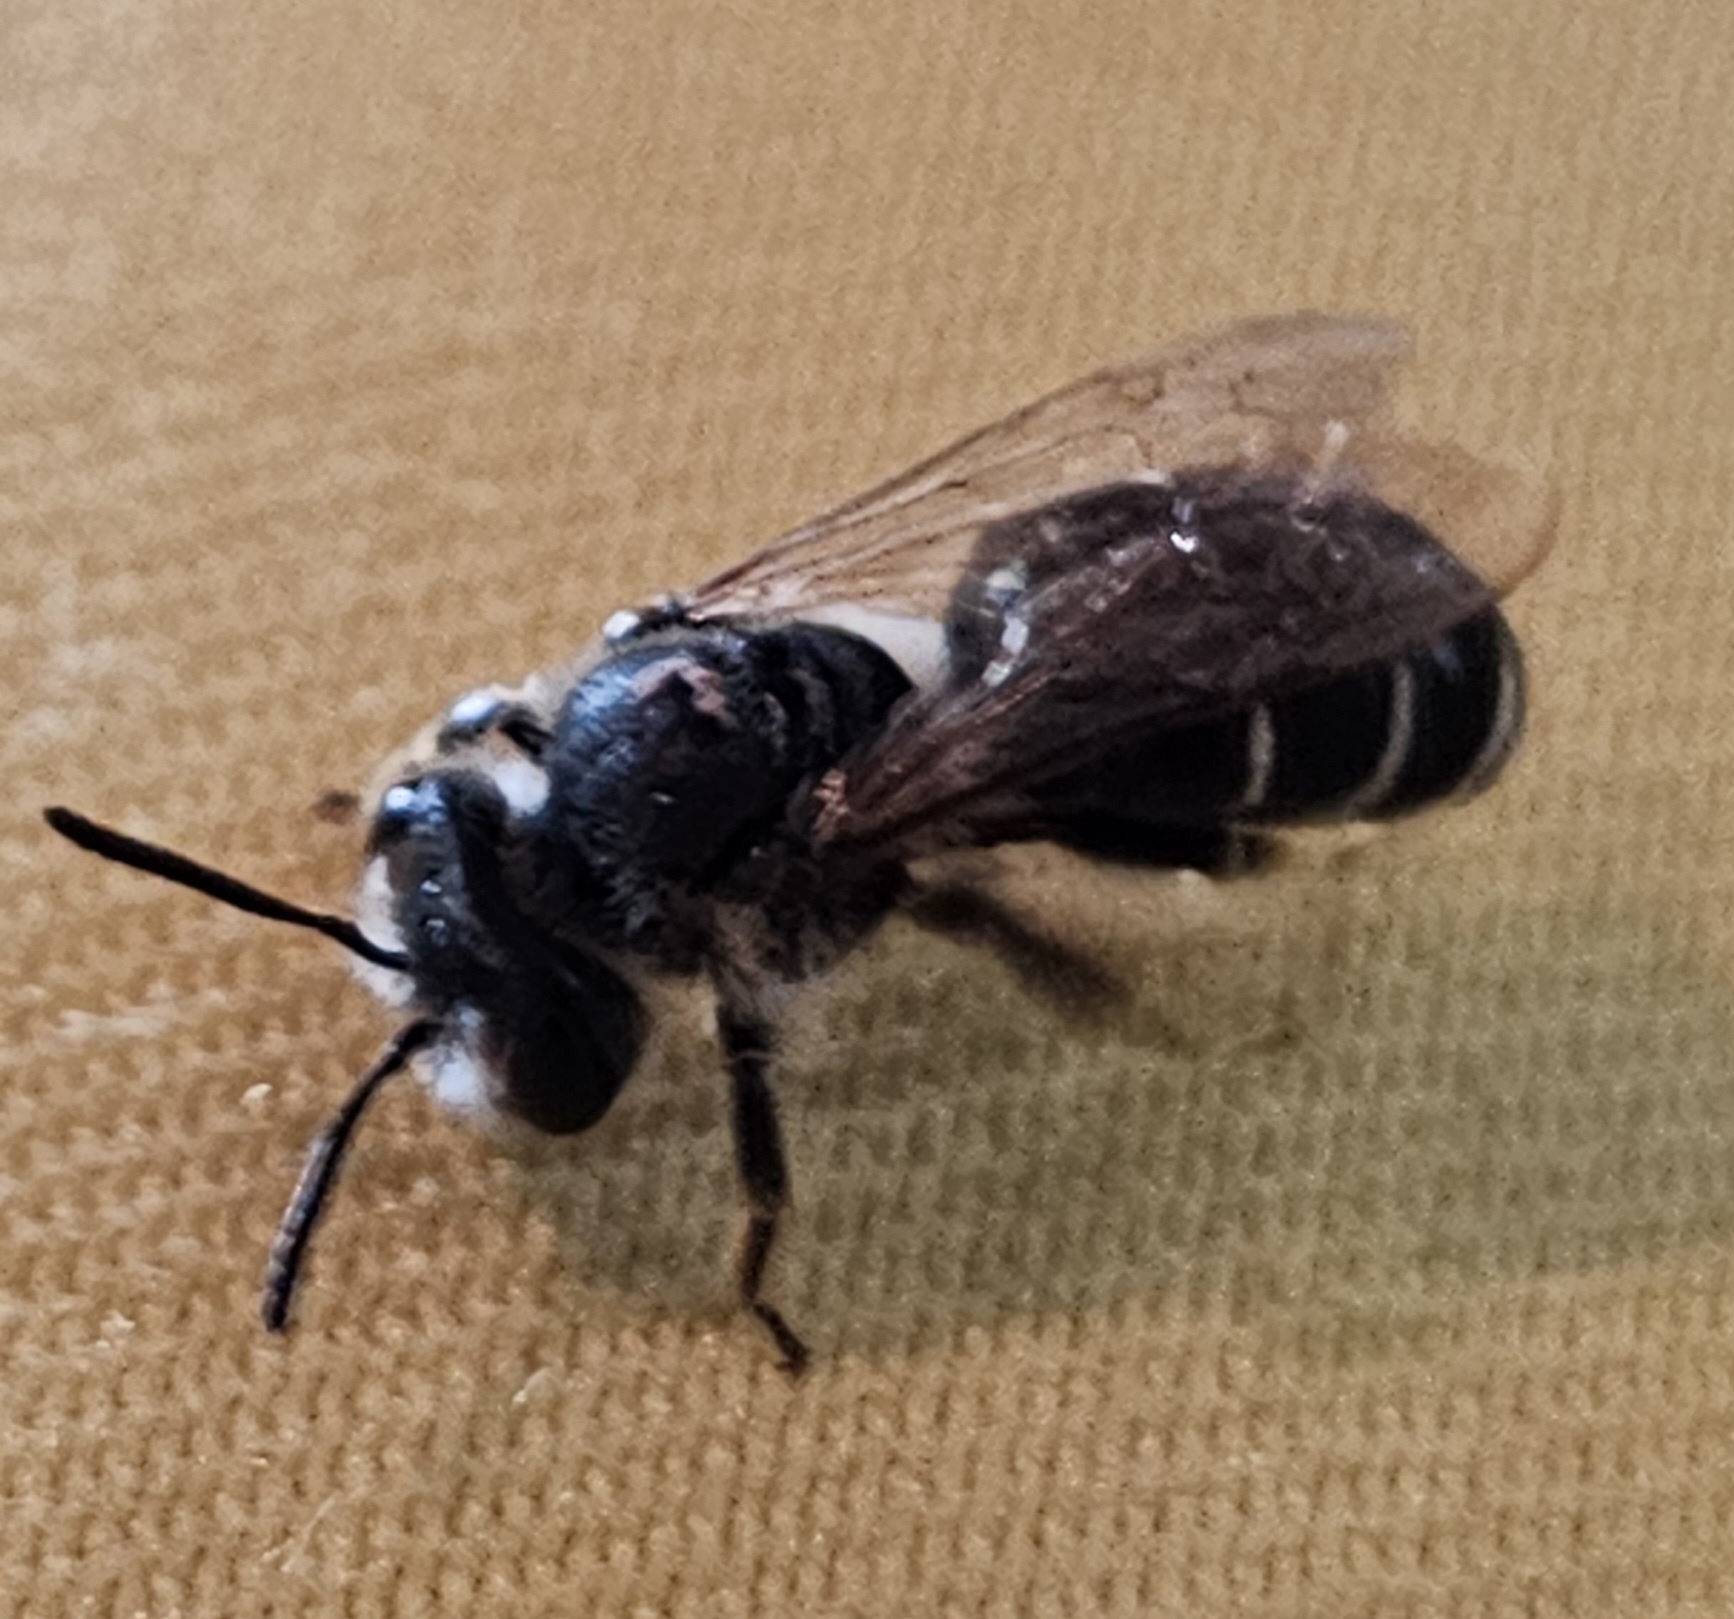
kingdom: Animalia
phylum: Arthropoda
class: Insecta
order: Hymenoptera
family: Andrenidae
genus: Andrena
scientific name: Andrena wilkella
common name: Wilke's mining bee
